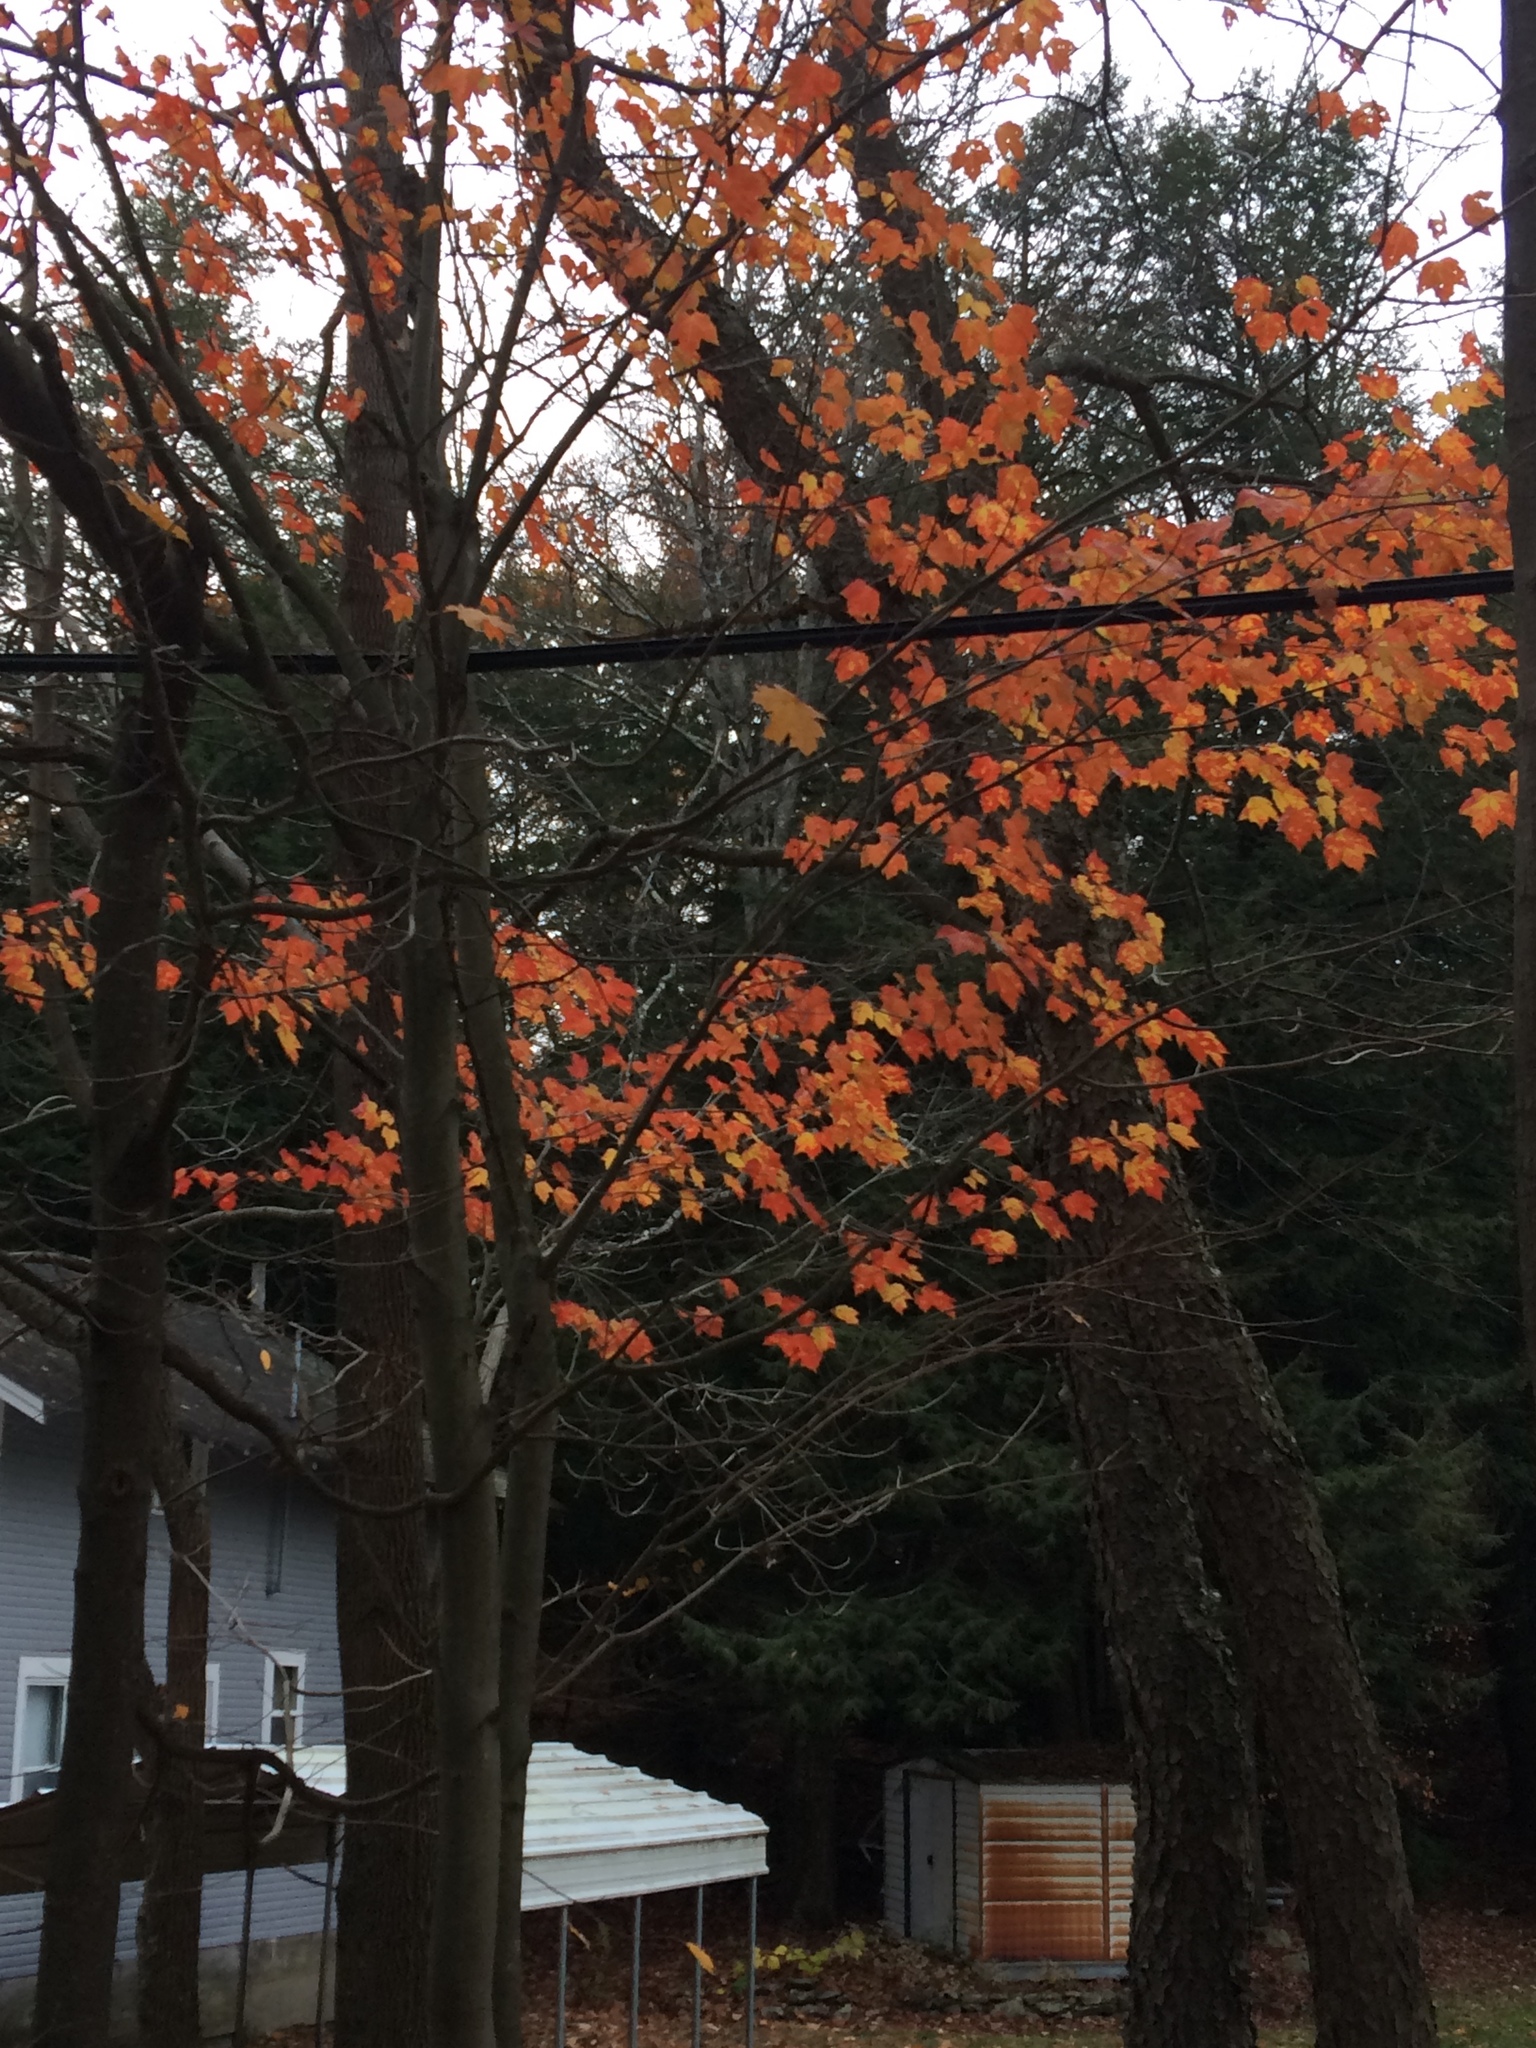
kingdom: Plantae
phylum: Tracheophyta
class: Magnoliopsida
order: Sapindales
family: Sapindaceae
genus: Acer
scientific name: Acer rubrum
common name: Red maple
